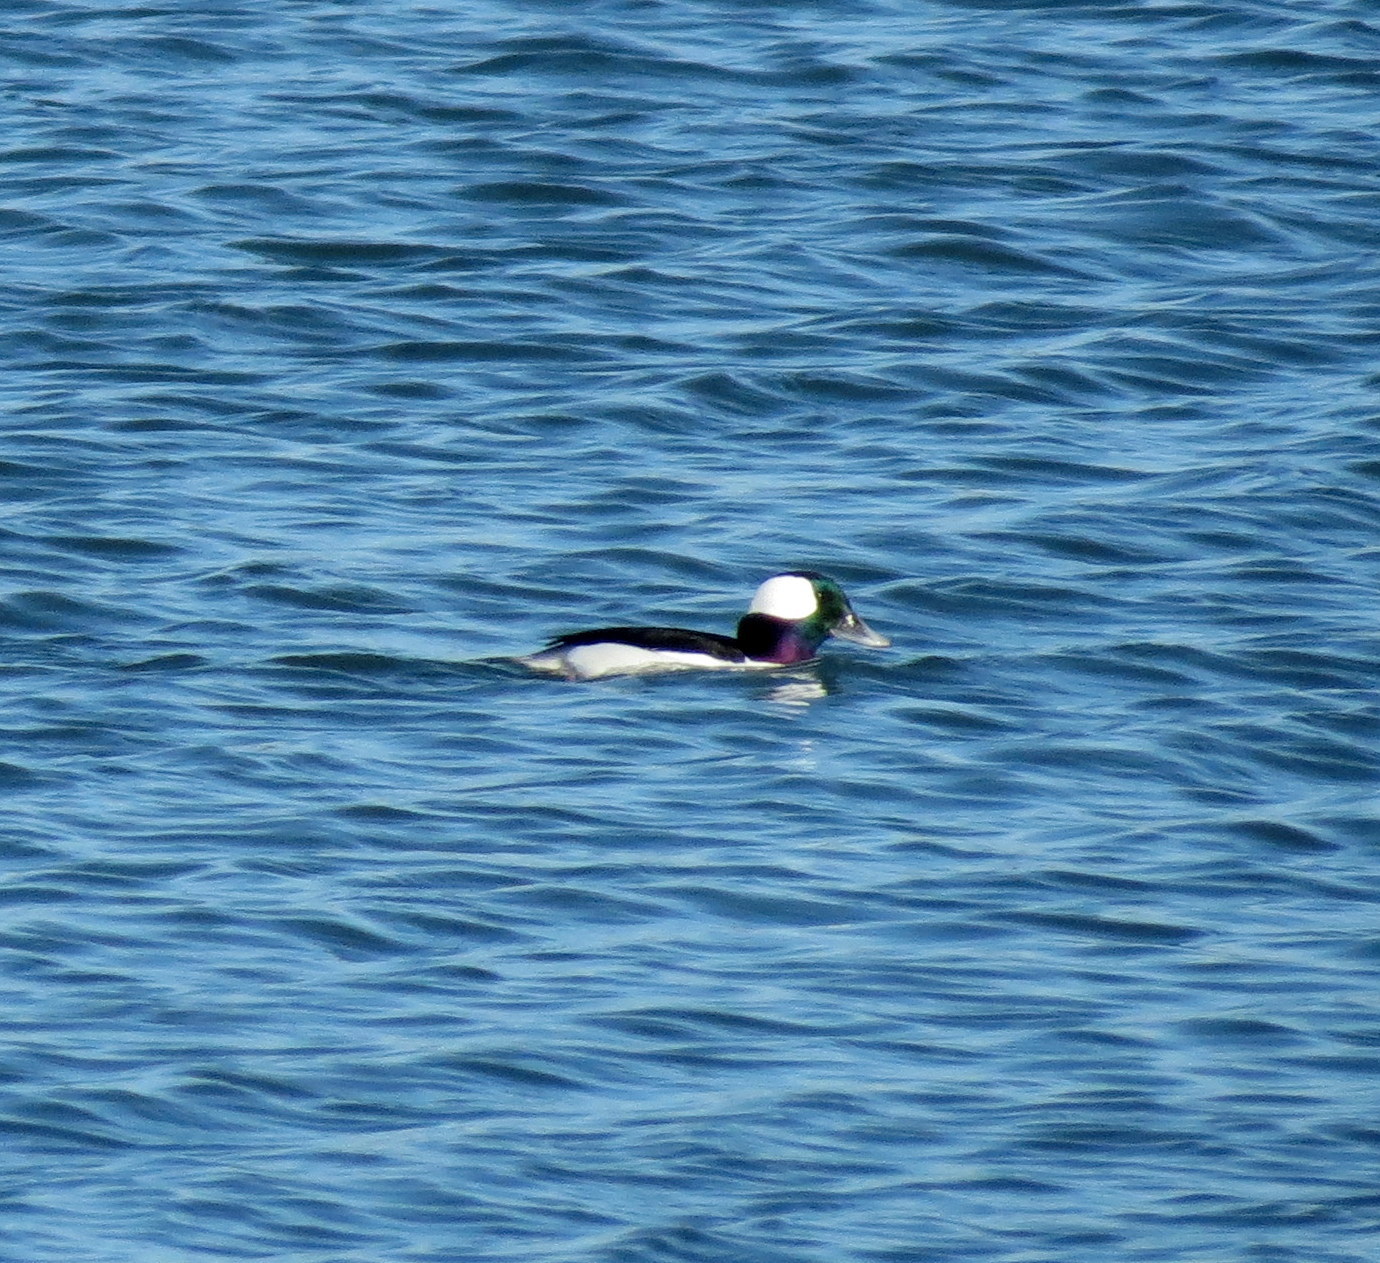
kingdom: Animalia
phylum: Chordata
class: Aves
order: Anseriformes
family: Anatidae
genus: Bucephala
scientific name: Bucephala albeola
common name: Bufflehead
